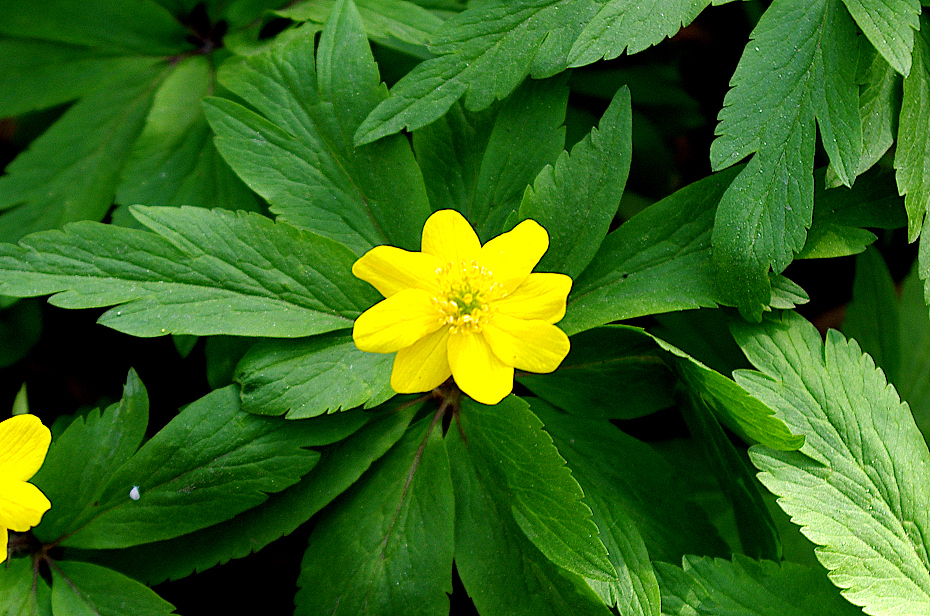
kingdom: Plantae
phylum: Tracheophyta
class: Magnoliopsida
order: Ranunculales
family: Ranunculaceae
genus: Anemone
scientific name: Anemone ranunculoides
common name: Yellow anemone
